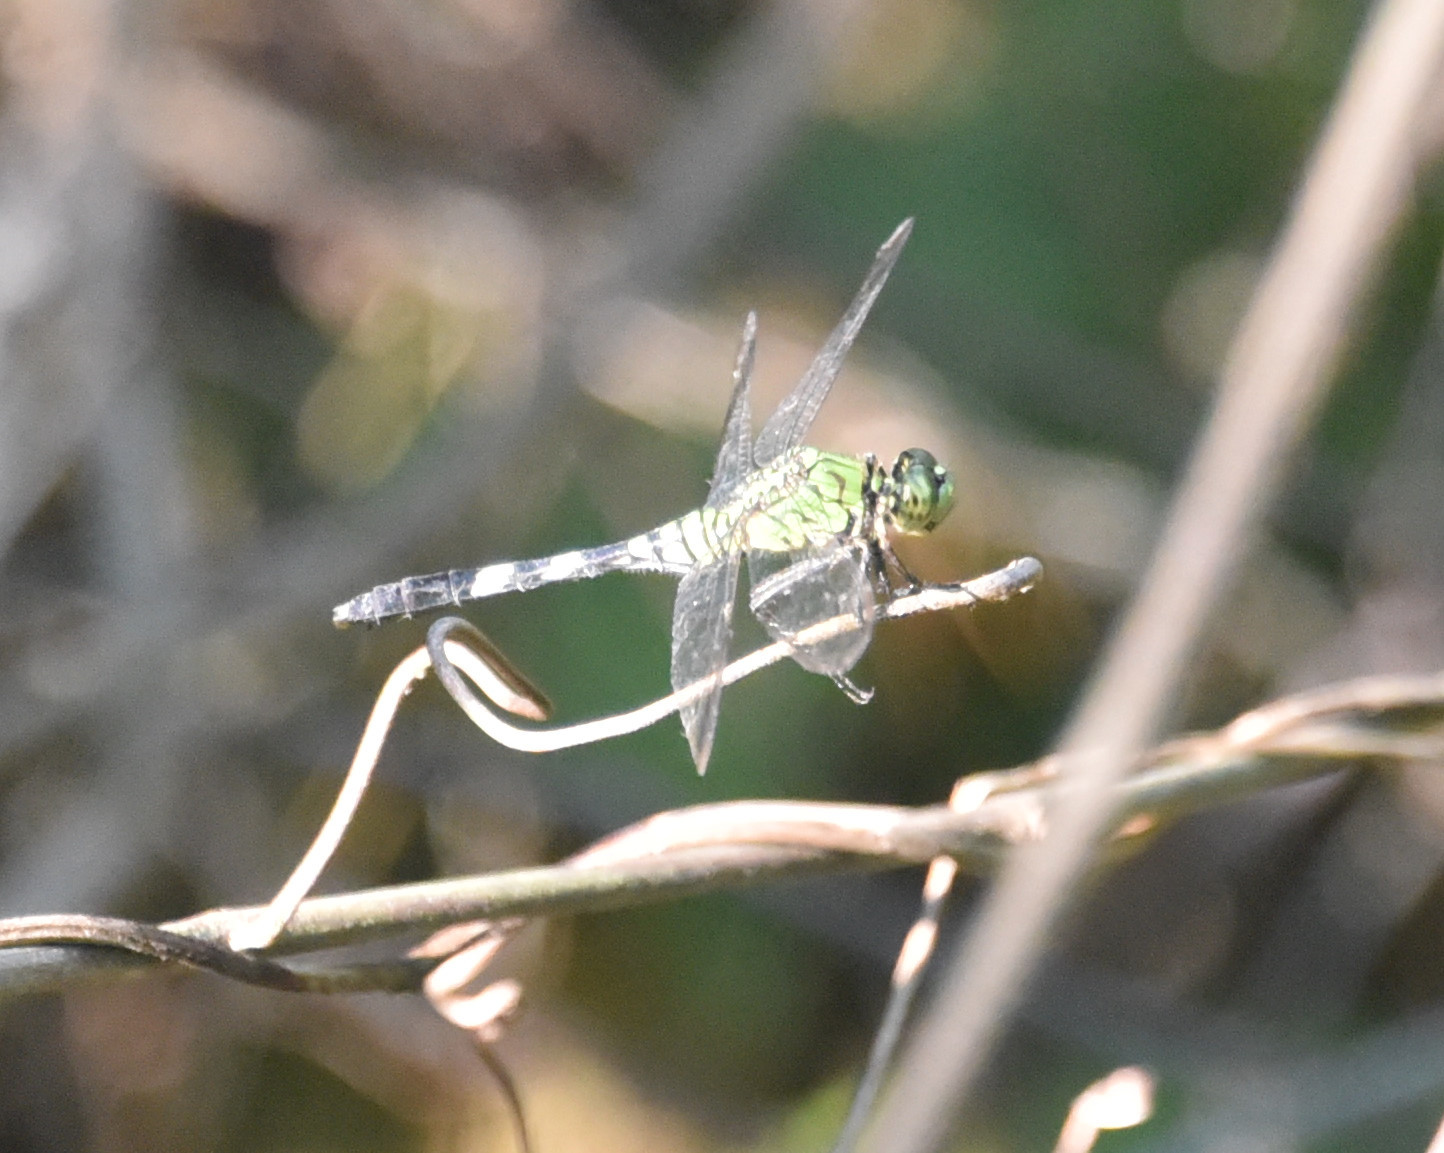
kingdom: Animalia
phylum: Arthropoda
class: Insecta
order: Odonata
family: Libellulidae
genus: Erythemis
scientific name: Erythemis simplicicollis
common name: Eastern pondhawk
